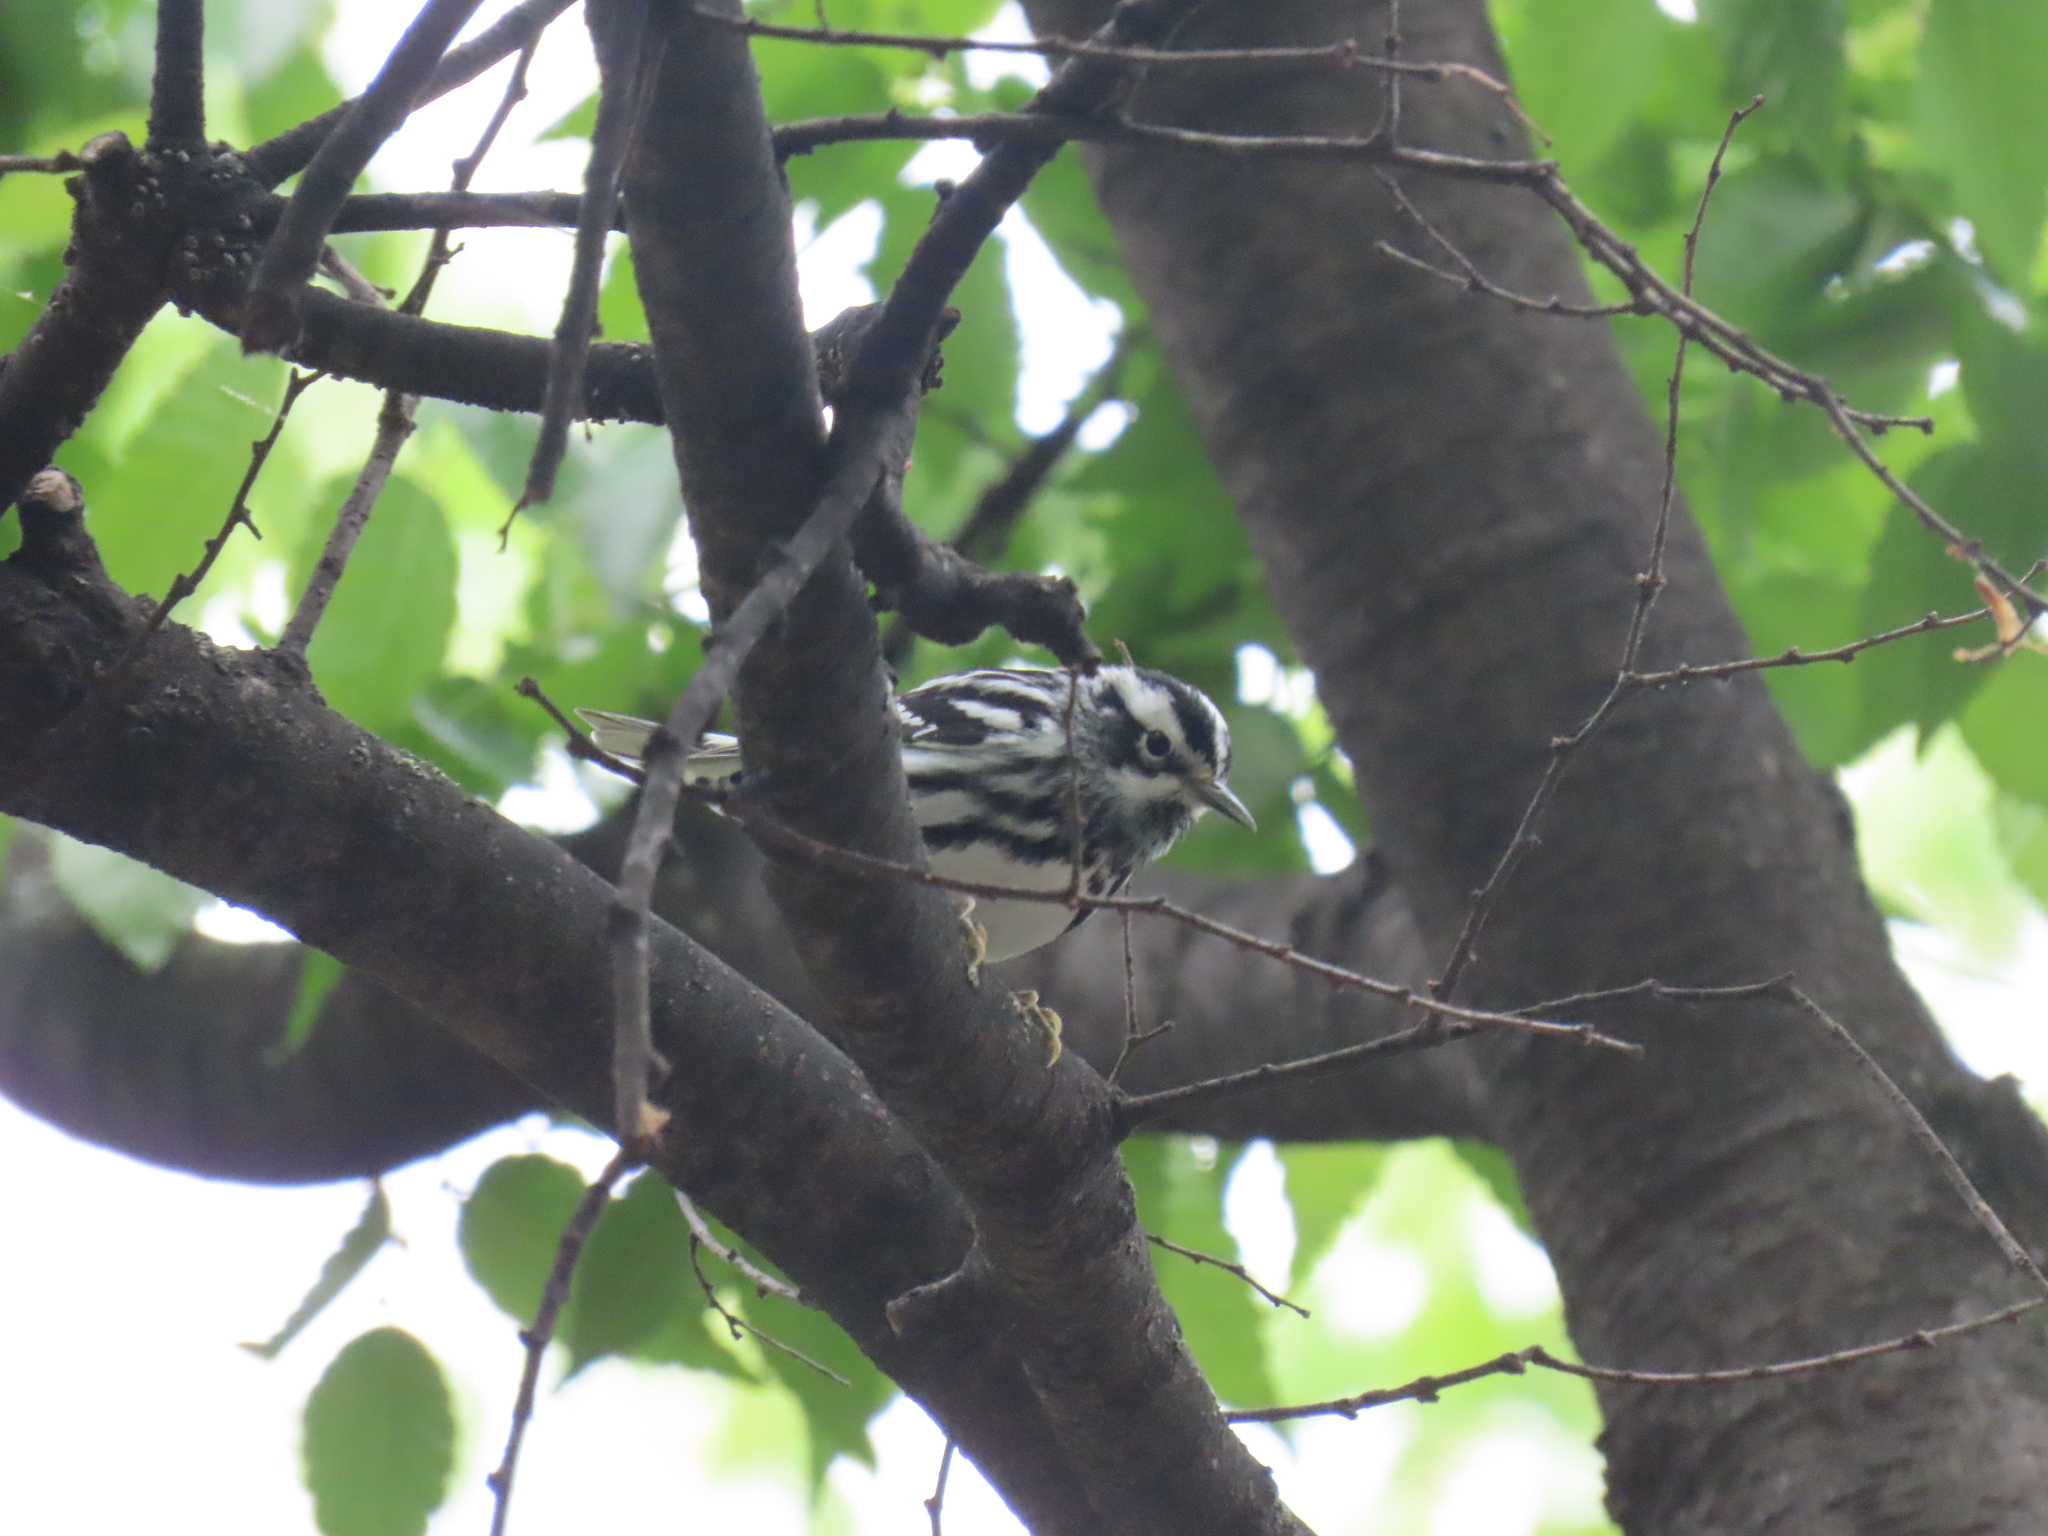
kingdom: Animalia
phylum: Chordata
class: Aves
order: Passeriformes
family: Parulidae
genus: Mniotilta
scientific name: Mniotilta varia
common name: Black-and-white warbler
